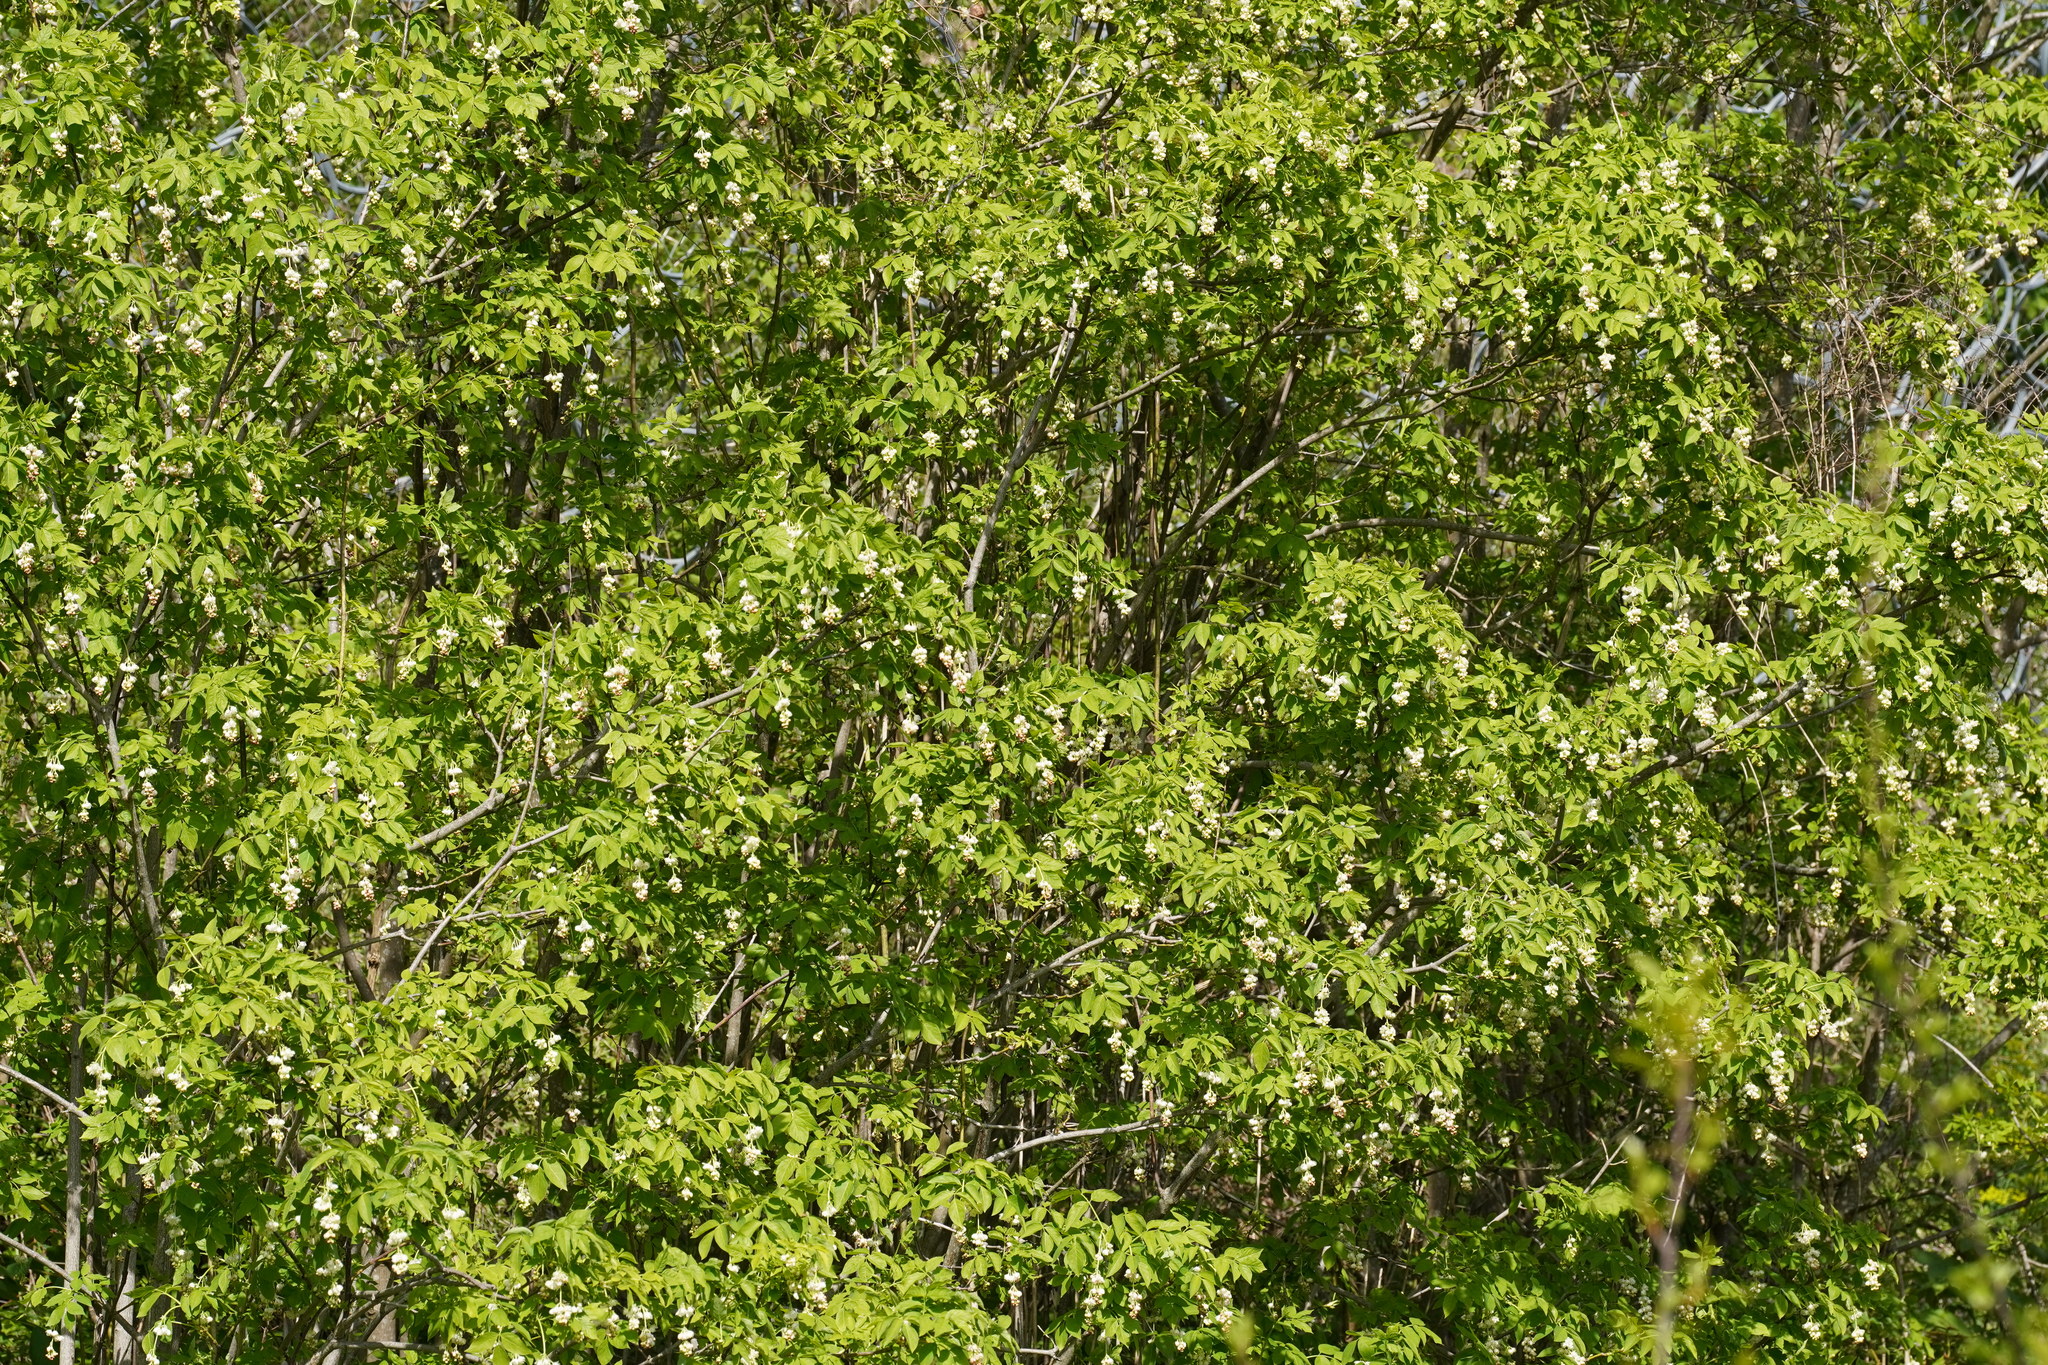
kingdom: Plantae
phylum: Tracheophyta
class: Magnoliopsida
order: Crossosomatales
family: Staphyleaceae
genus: Staphylea
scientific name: Staphylea pinnata
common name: Bladdernut
